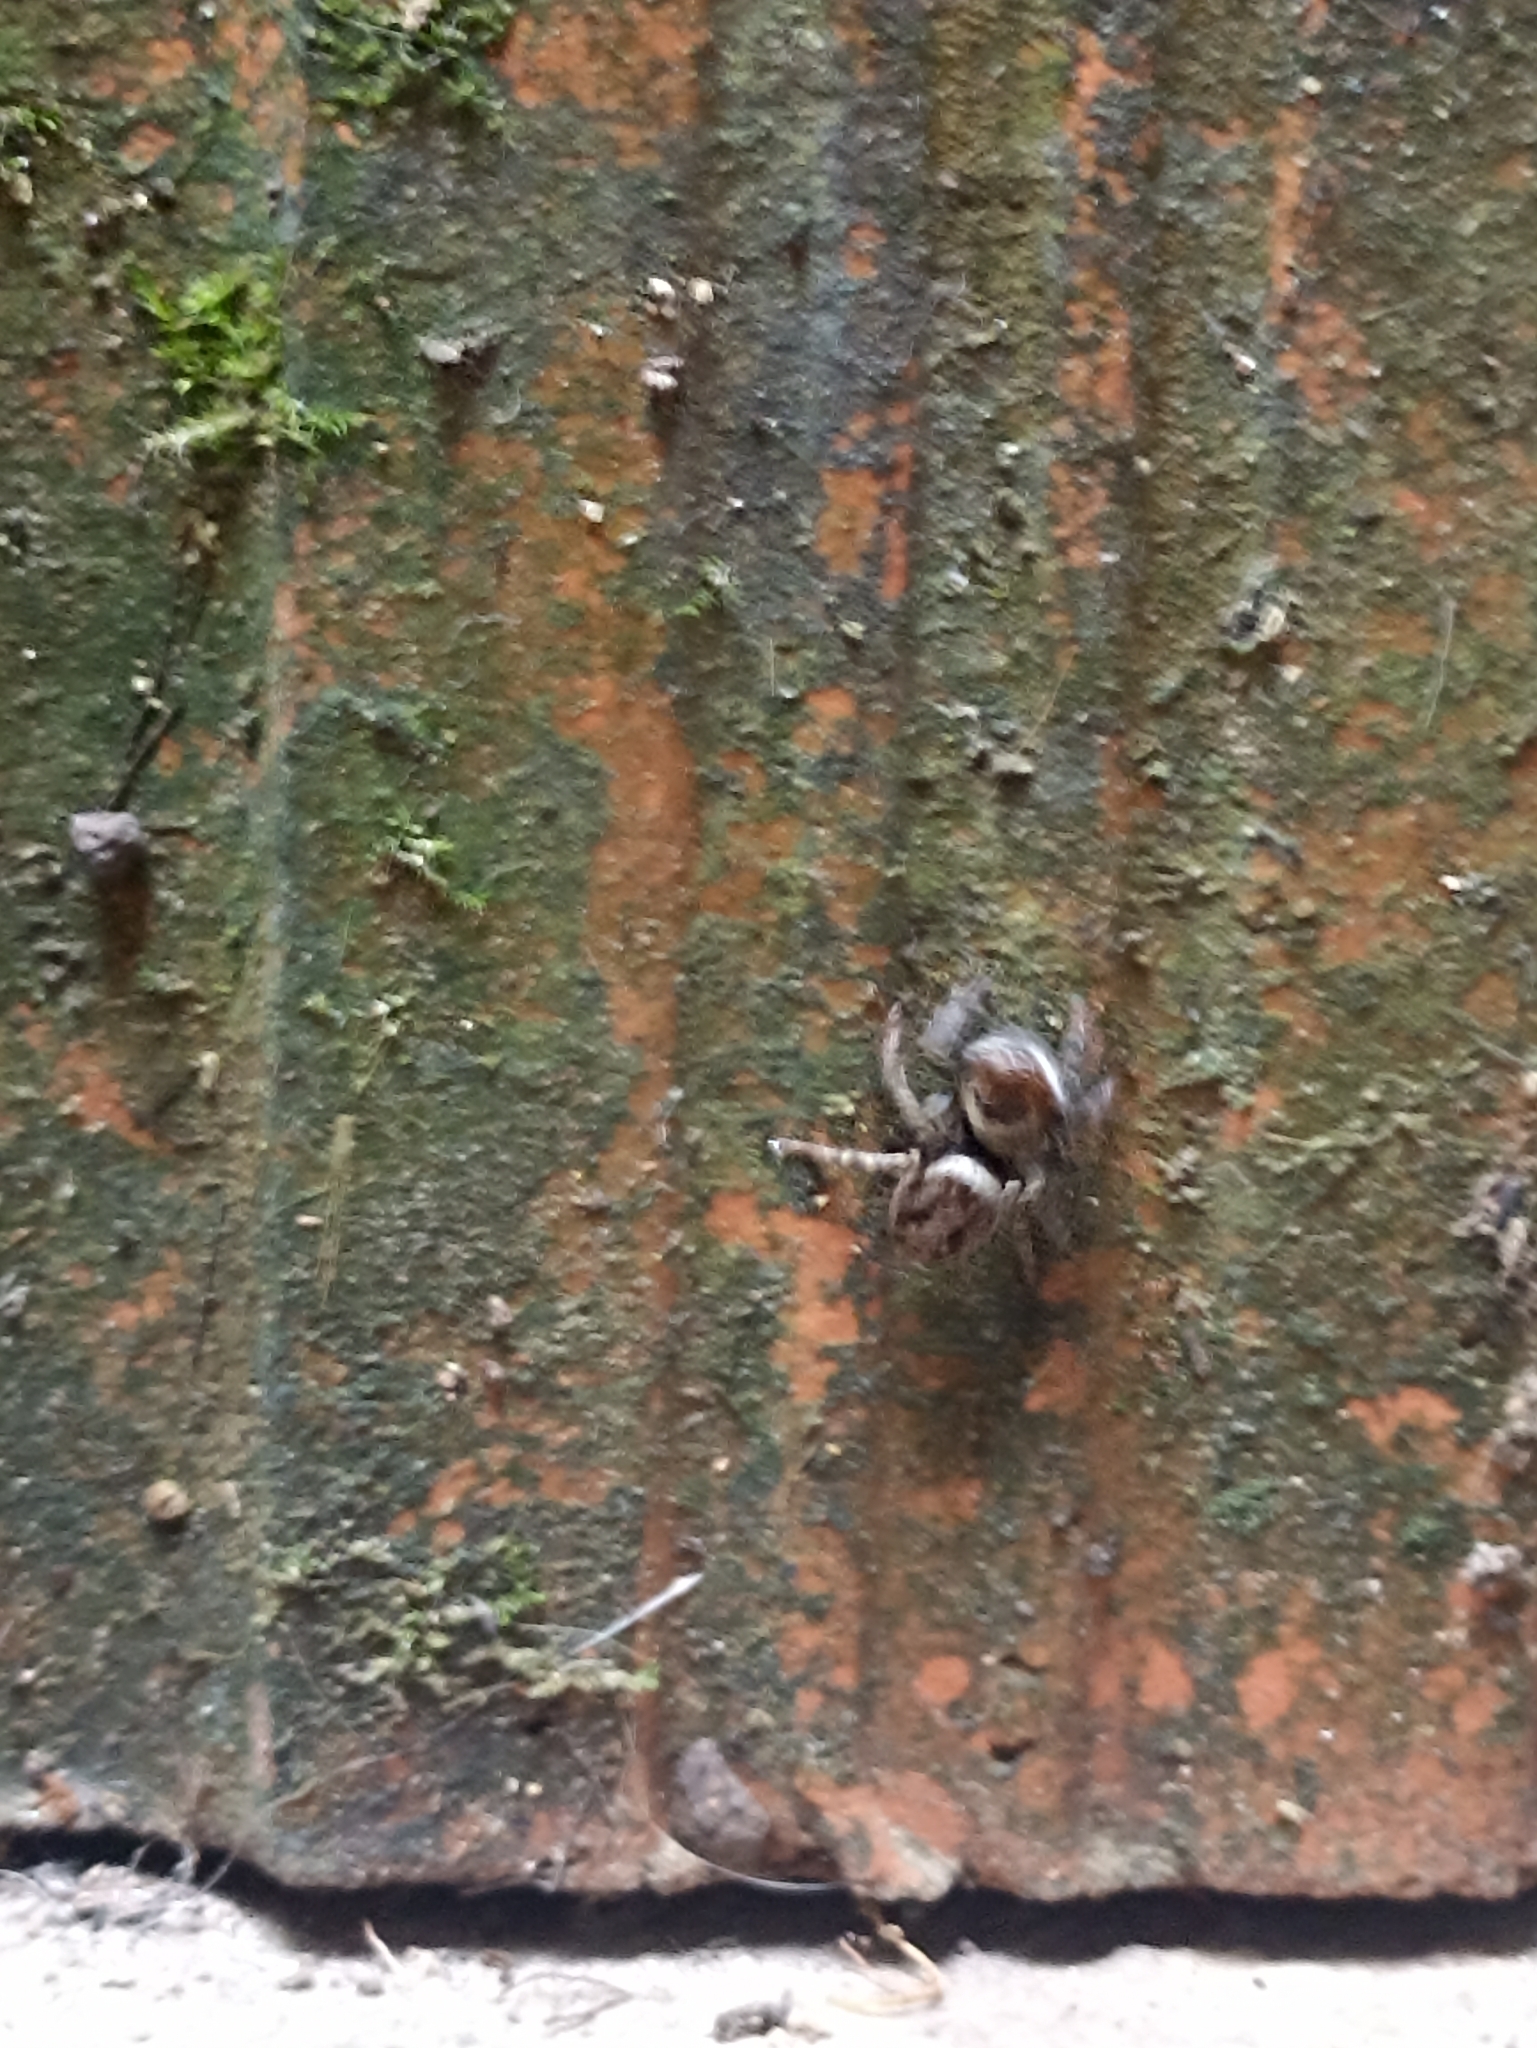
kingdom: Animalia
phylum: Arthropoda
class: Arachnida
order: Araneae
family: Salticidae
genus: Hasarius
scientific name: Hasarius adansoni
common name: Jumping spider
